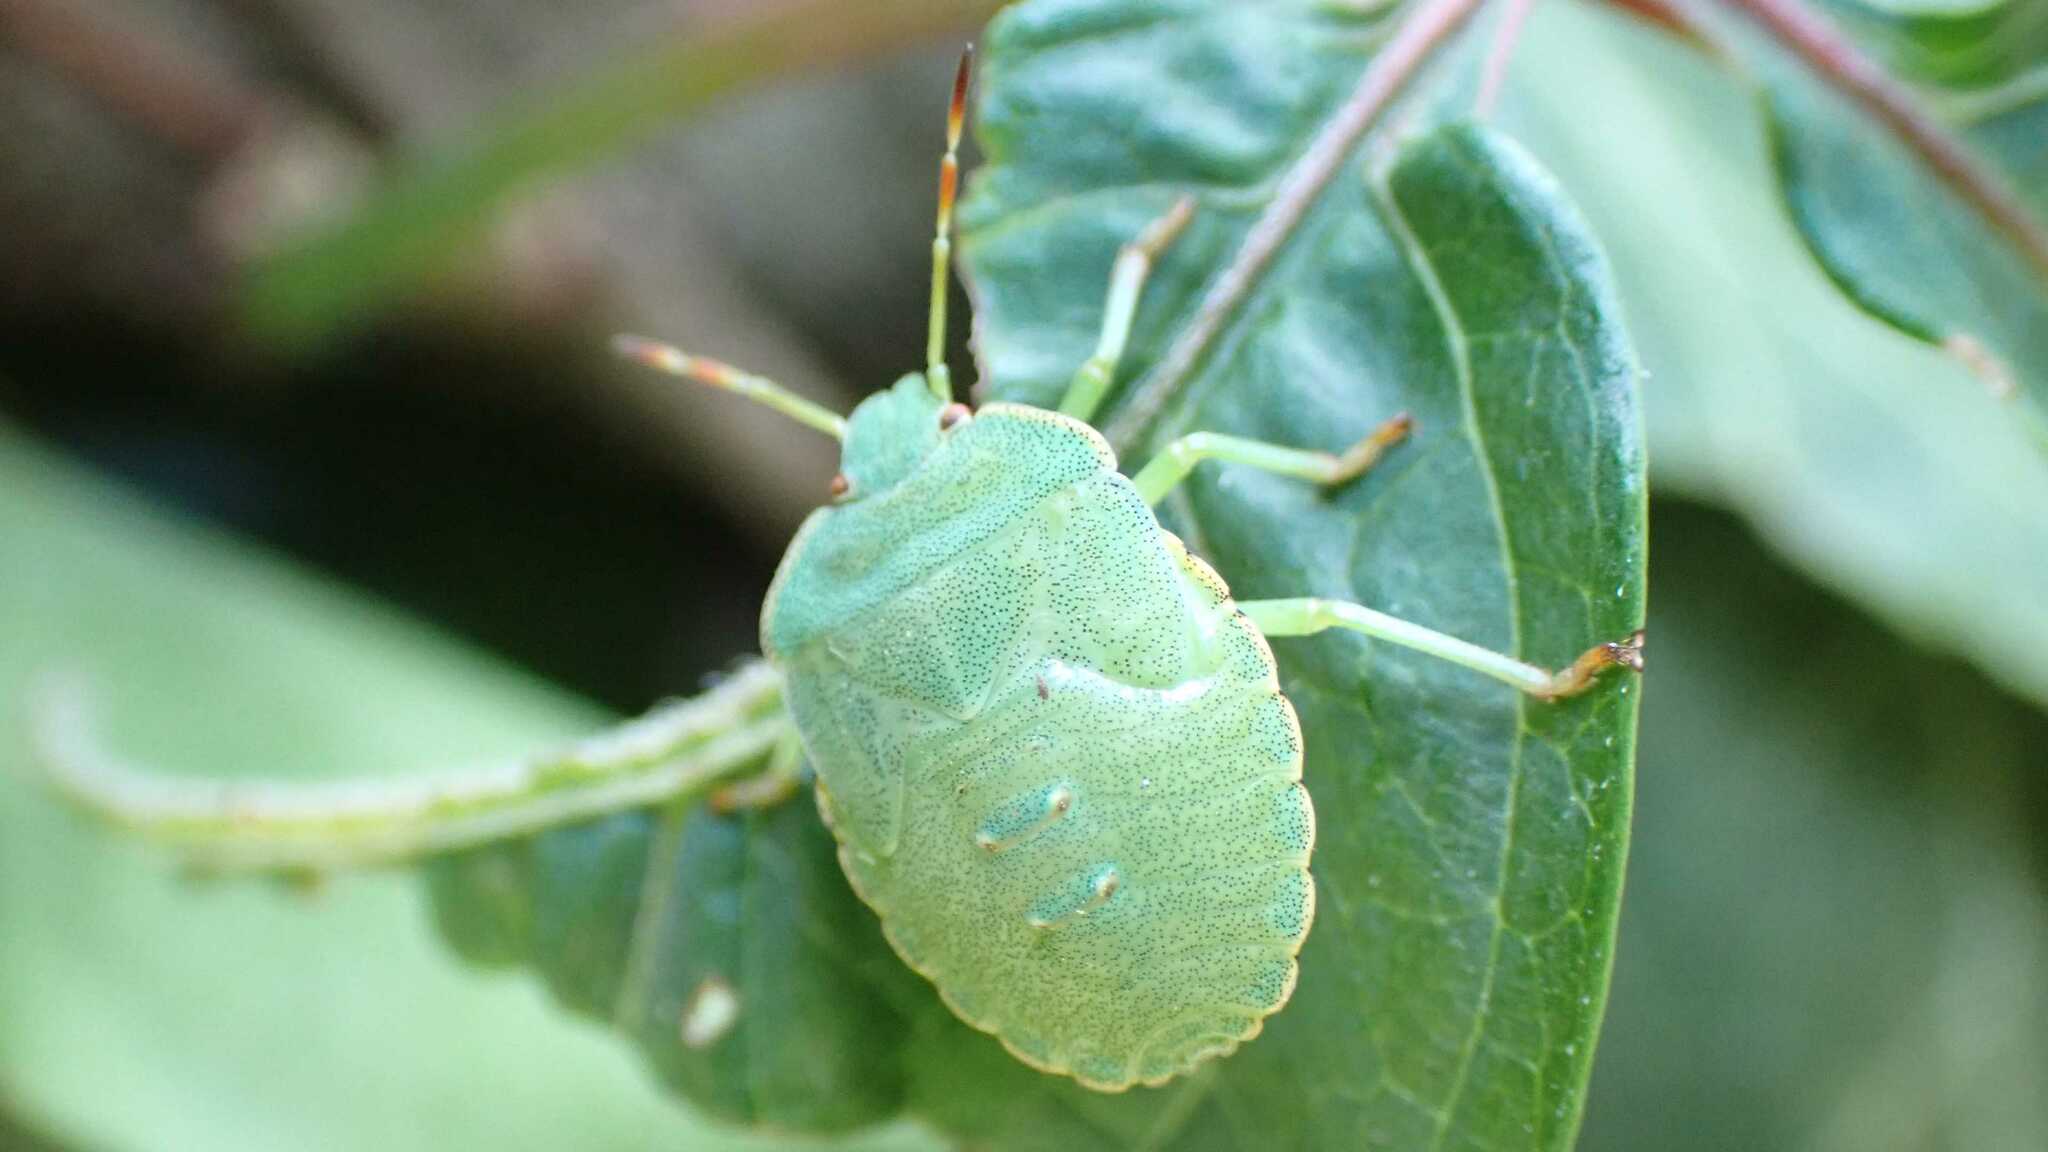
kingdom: Animalia
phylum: Arthropoda
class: Insecta
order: Hemiptera
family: Pentatomidae
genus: Palomena
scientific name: Palomena prasina
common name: Green shieldbug
